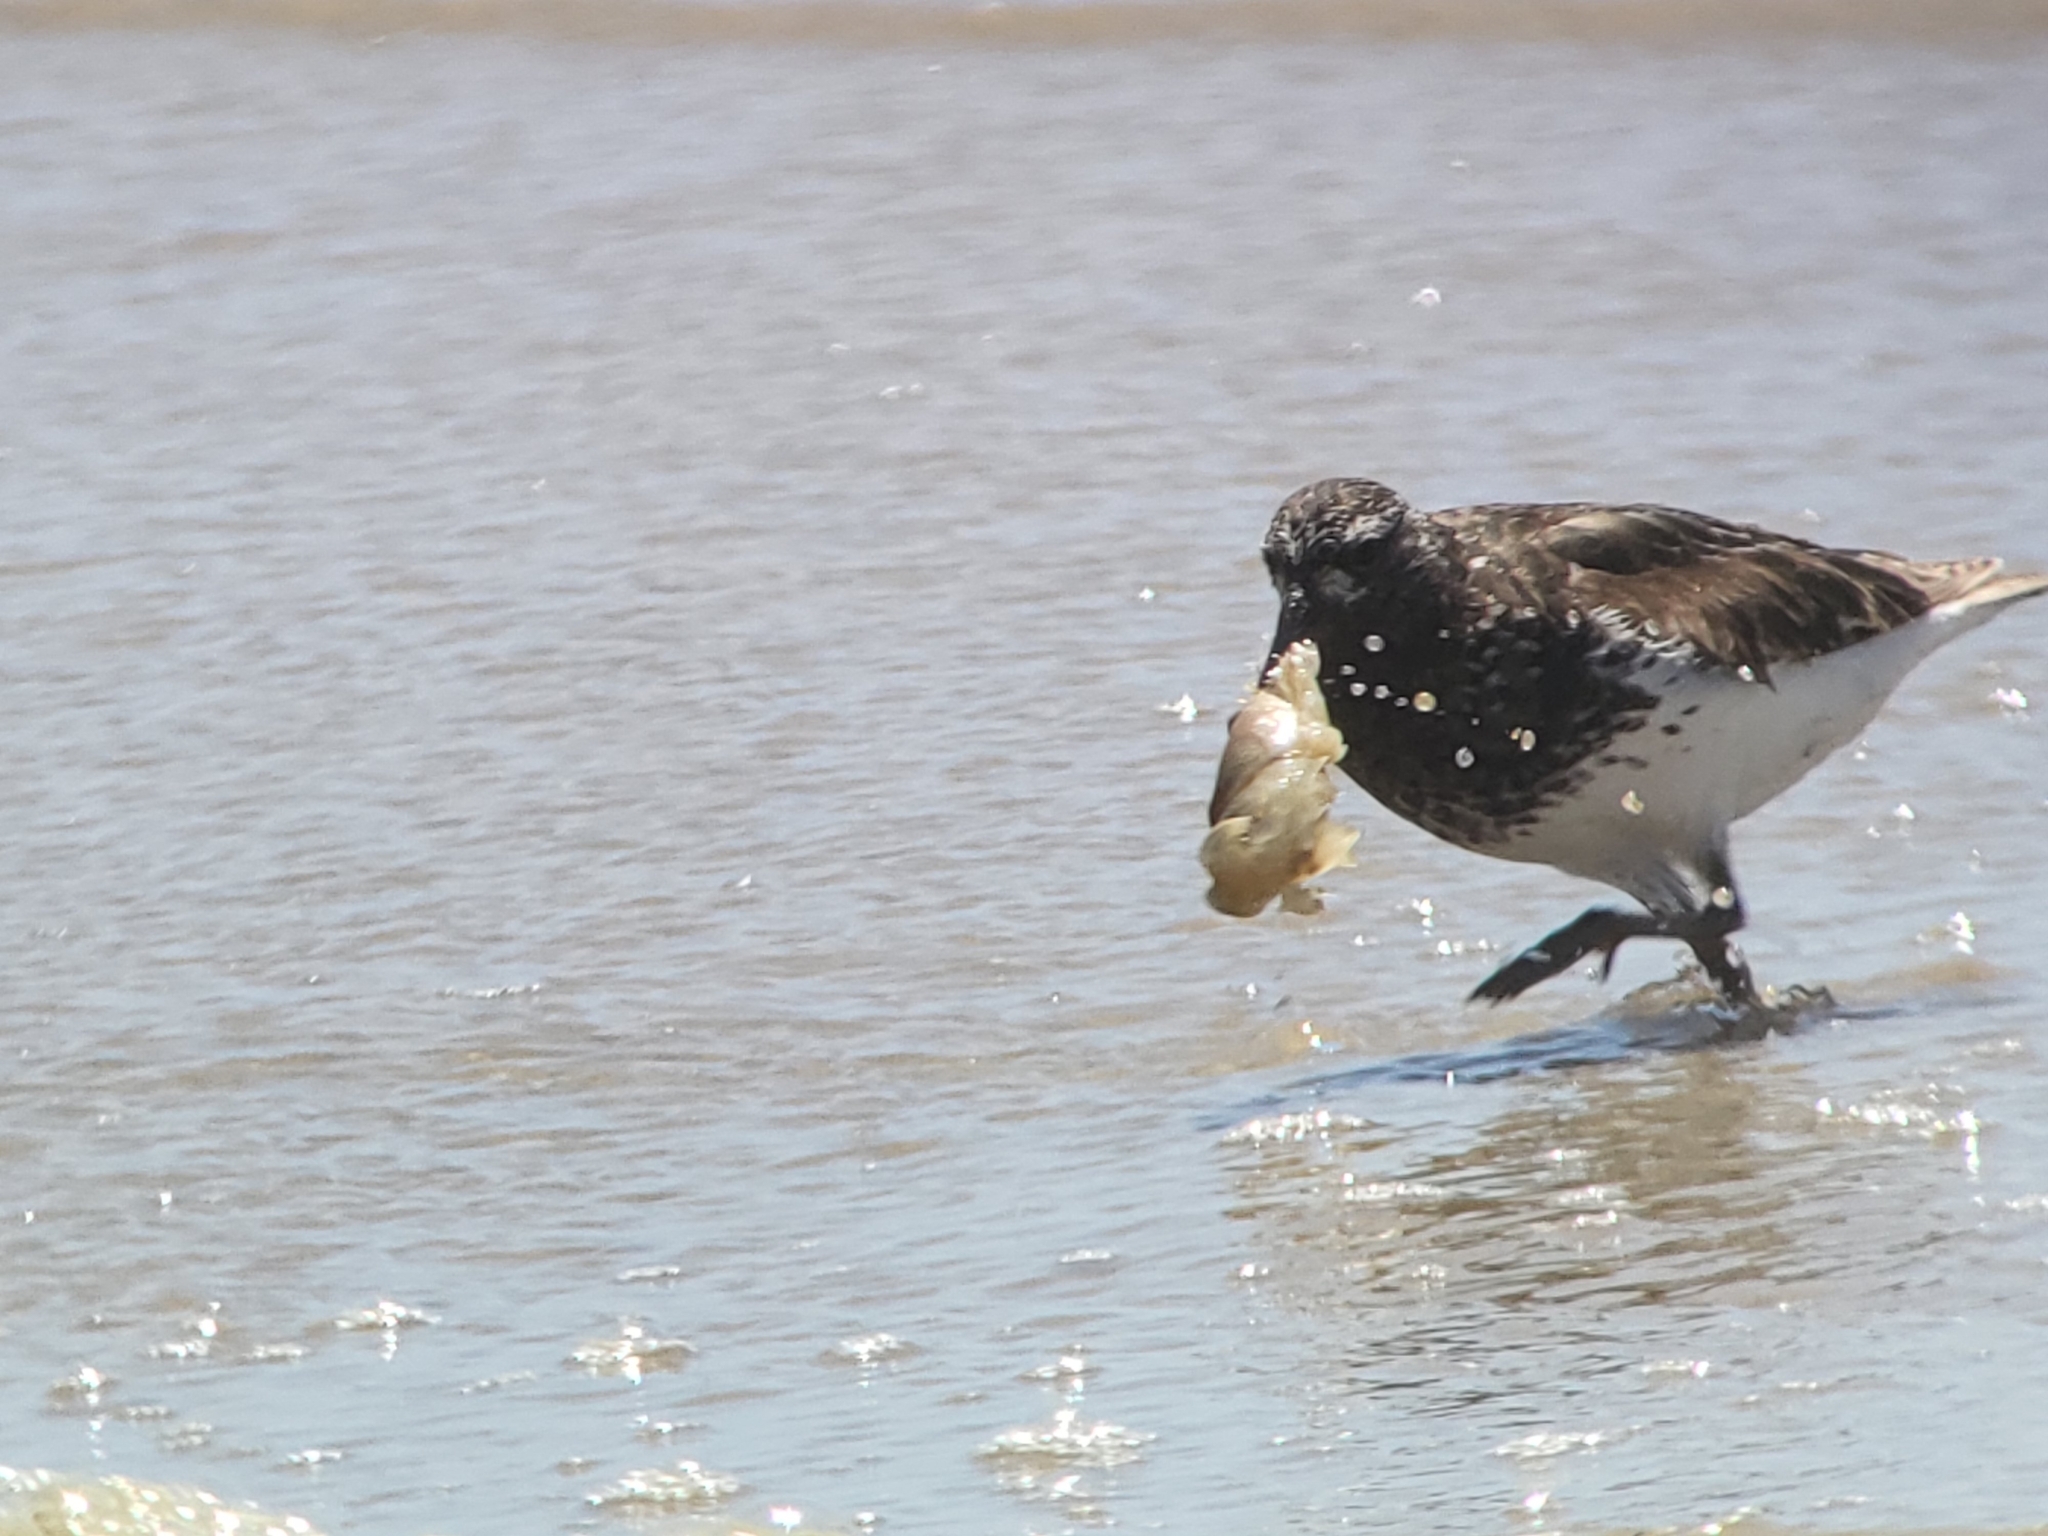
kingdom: Animalia
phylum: Chordata
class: Aves
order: Charadriiformes
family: Scolopacidae
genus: Arenaria
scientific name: Arenaria melanocephala
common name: Black turnstone
